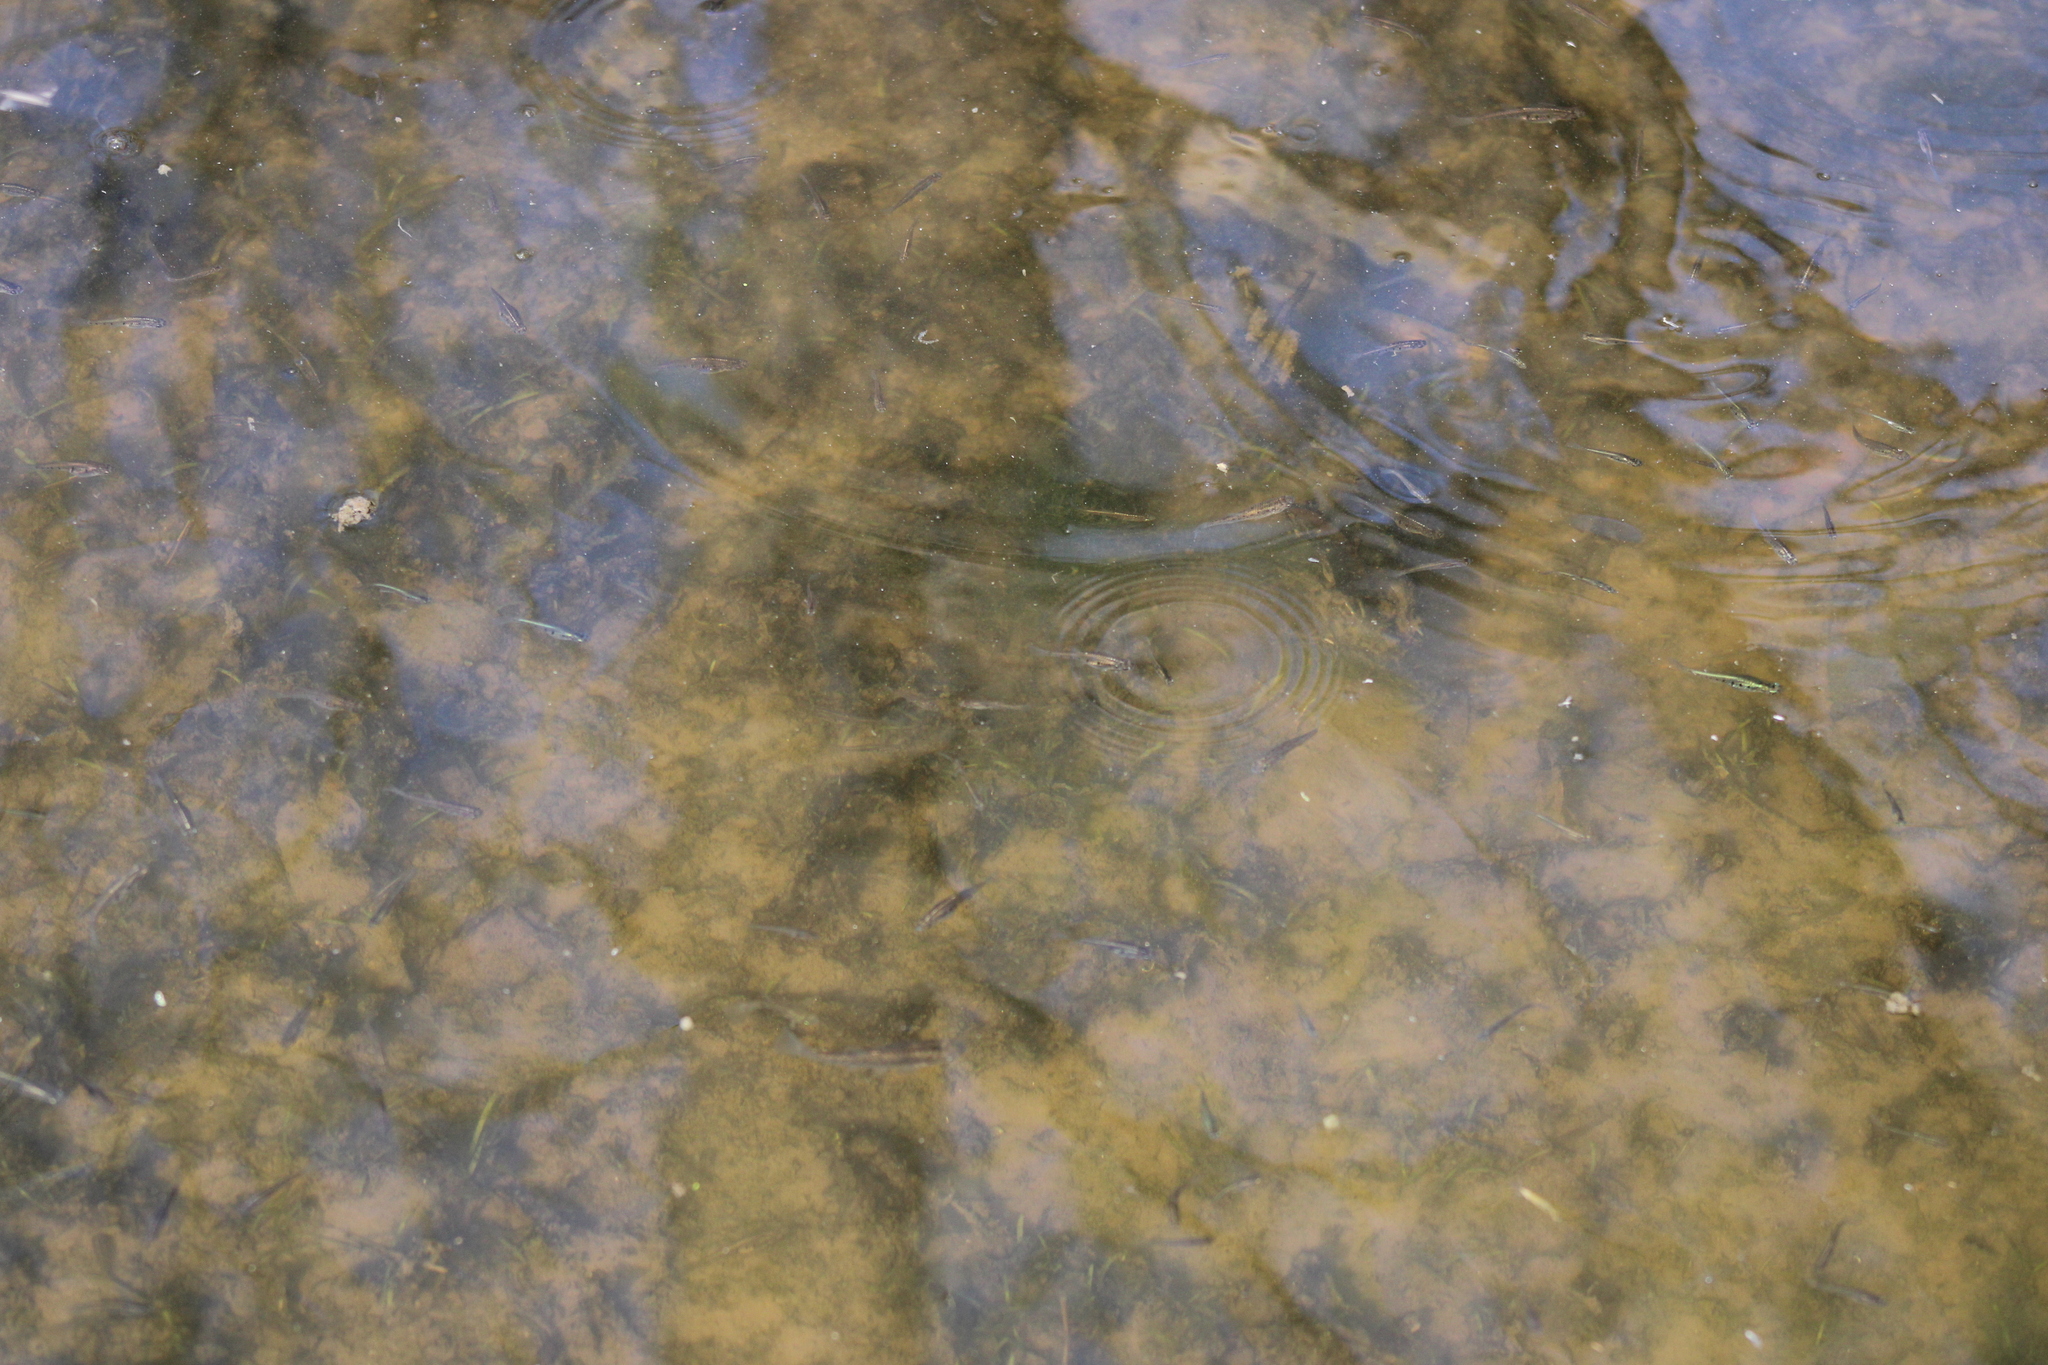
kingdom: Animalia
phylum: Chordata
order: Cyprinodontiformes
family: Poeciliidae
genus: Cnesterodon
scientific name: Cnesterodon decemmaculatus
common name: Ten spotted live-bearer
